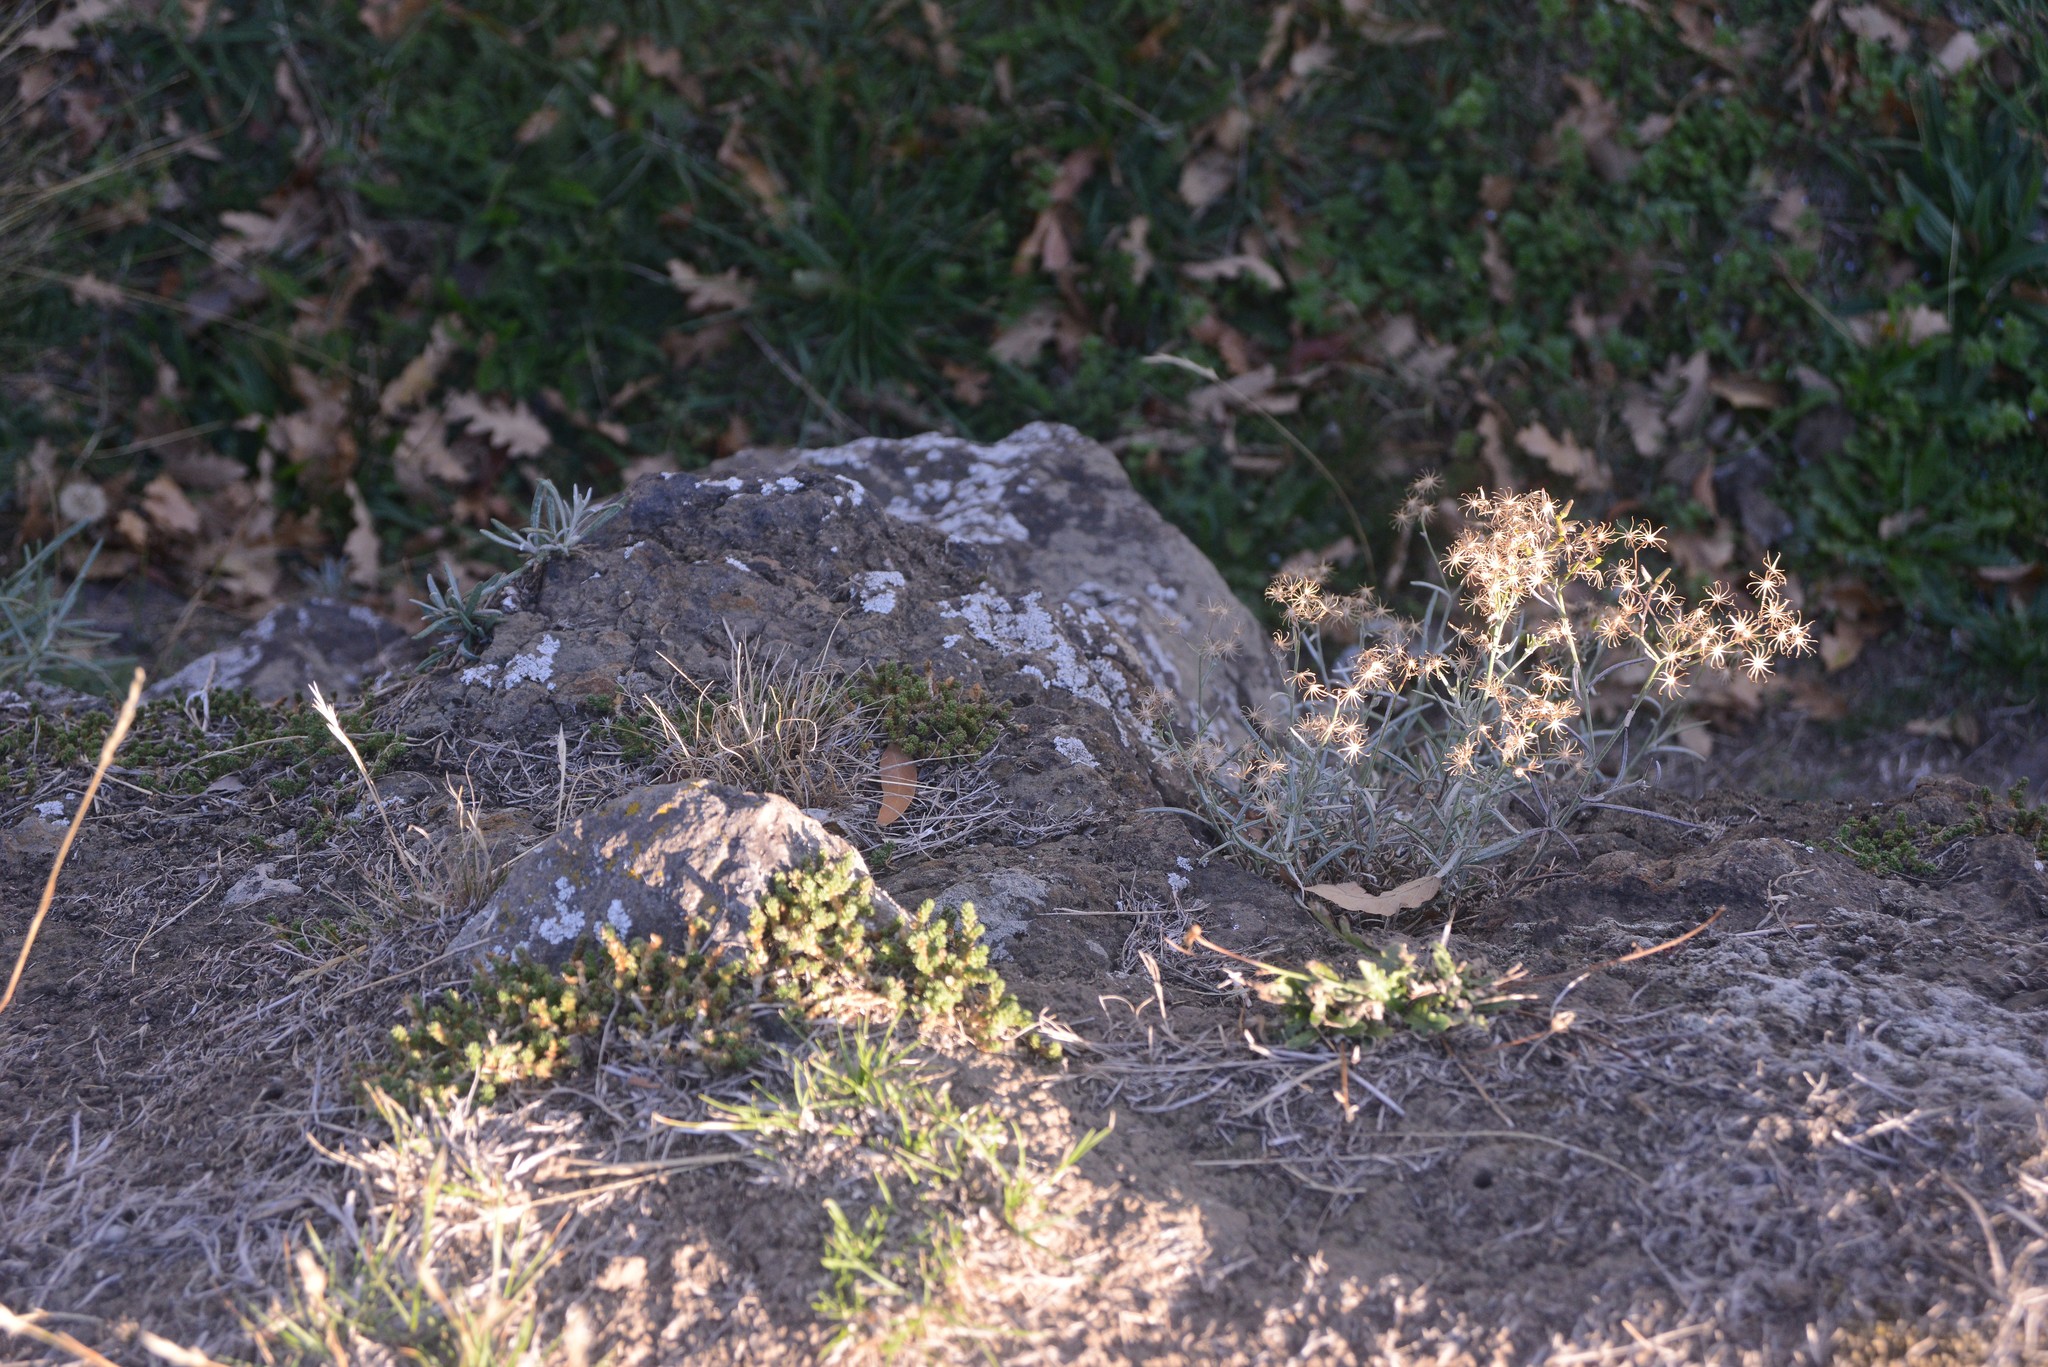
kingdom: Plantae
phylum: Tracheophyta
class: Magnoliopsida
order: Asterales
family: Asteraceae
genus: Senecio
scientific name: Senecio quadridentatus
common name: Cotton fireweed
